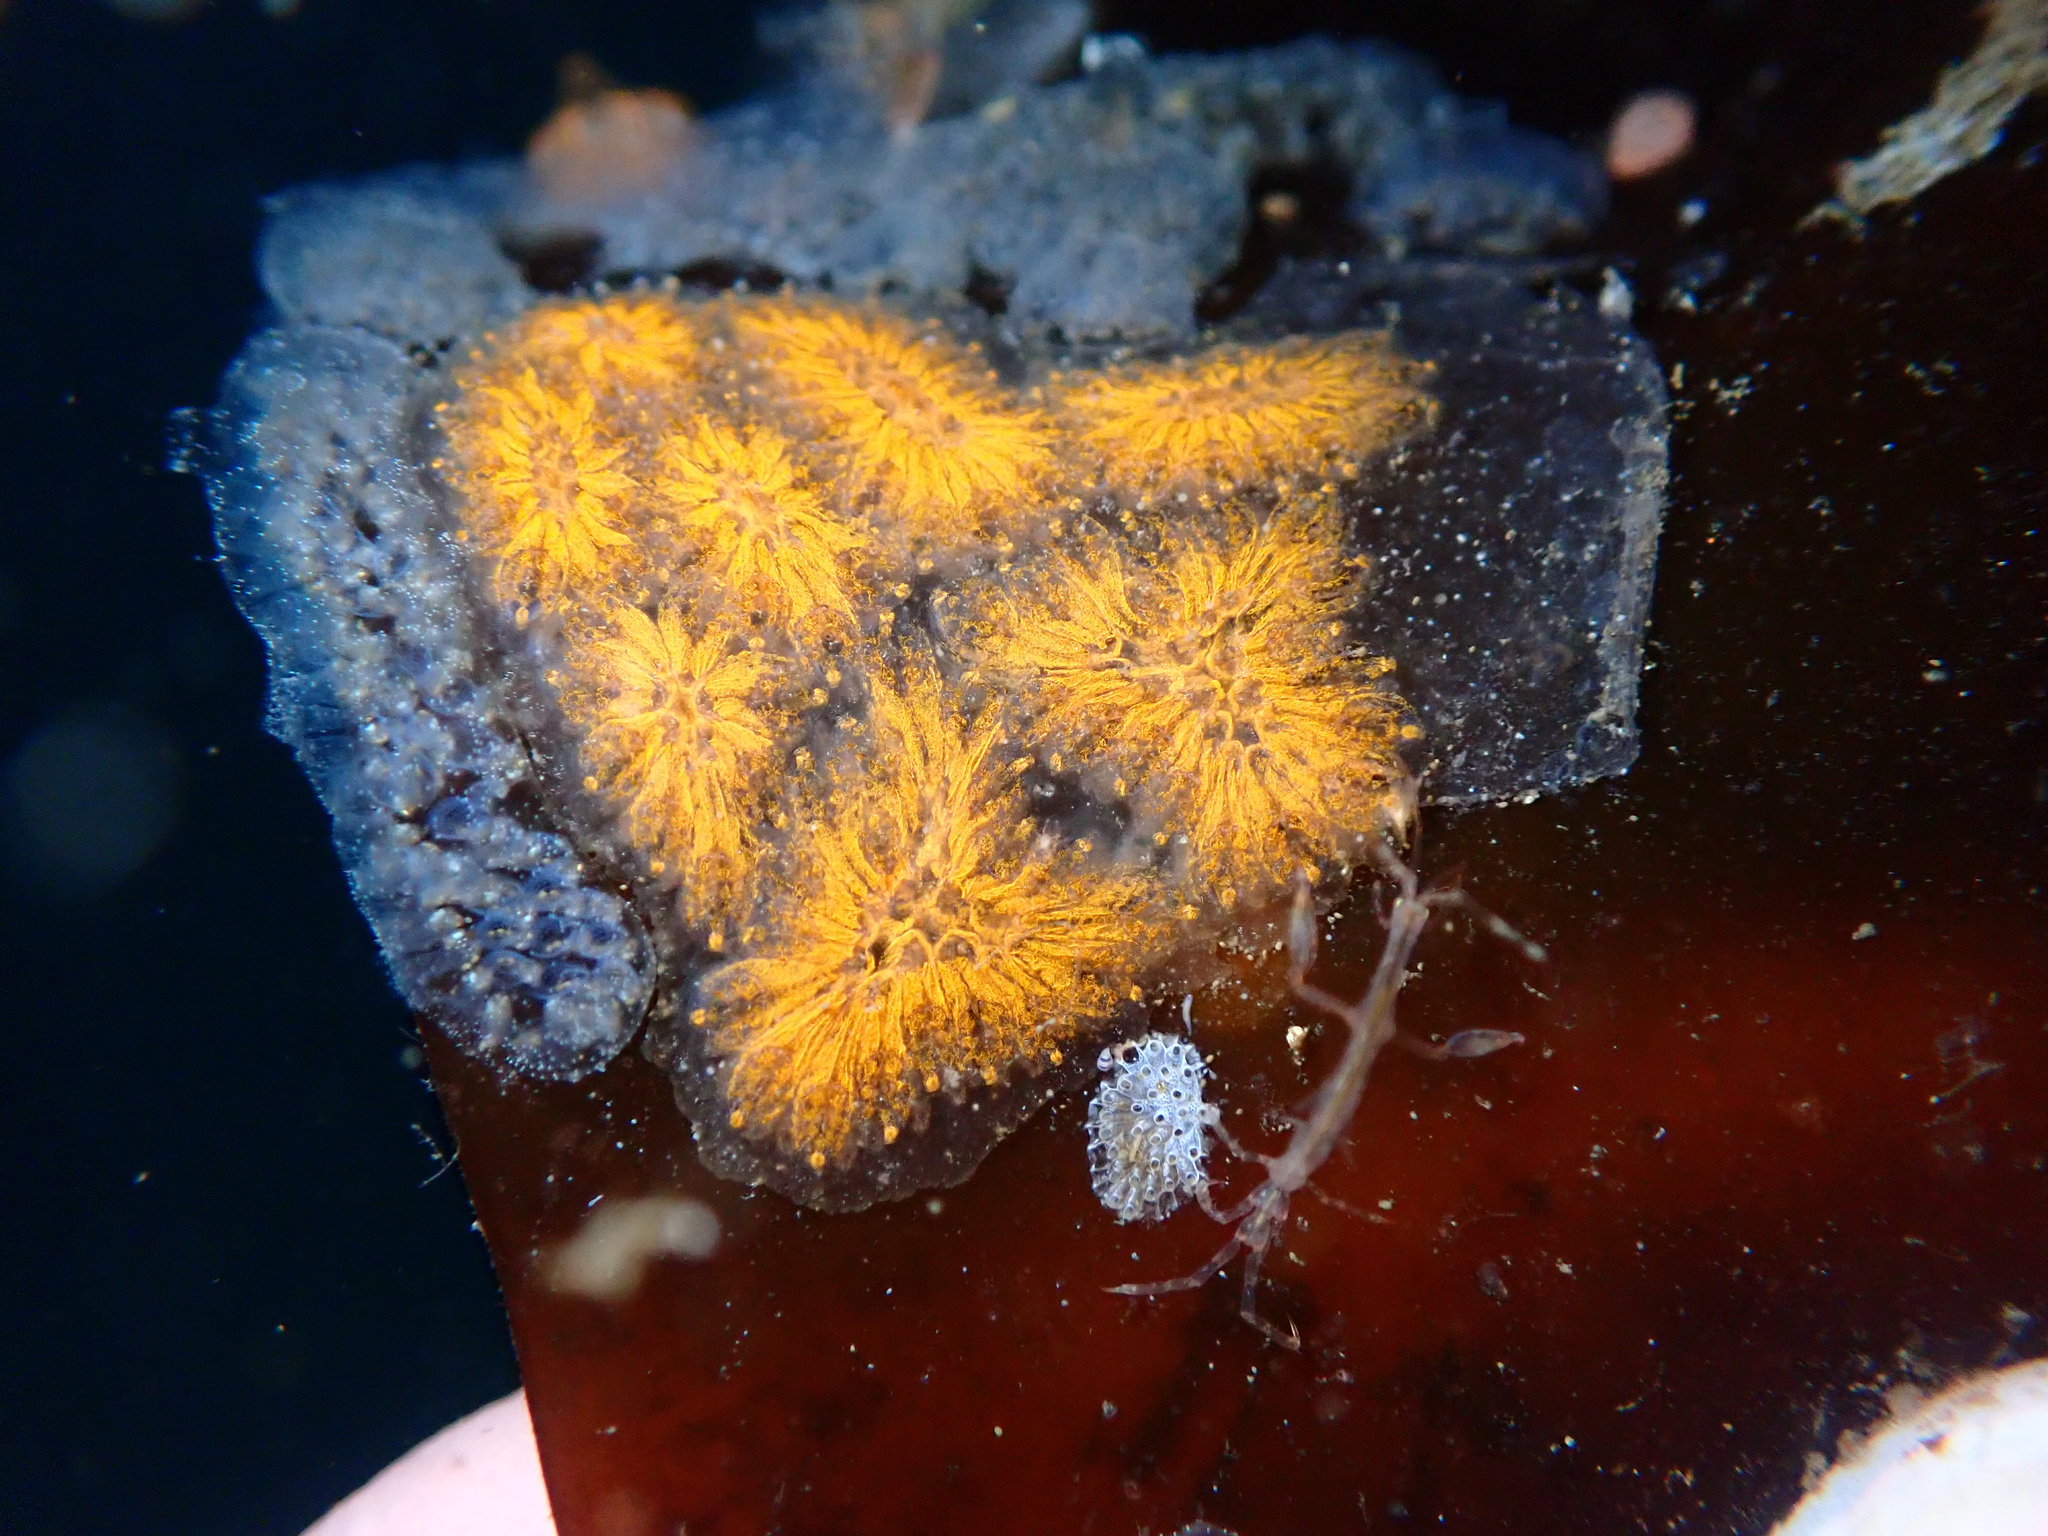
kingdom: Animalia
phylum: Chordata
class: Ascidiacea
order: Stolidobranchia
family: Styelidae
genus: Botryllus
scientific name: Botryllus schlosseri
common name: Golden star tunicate
